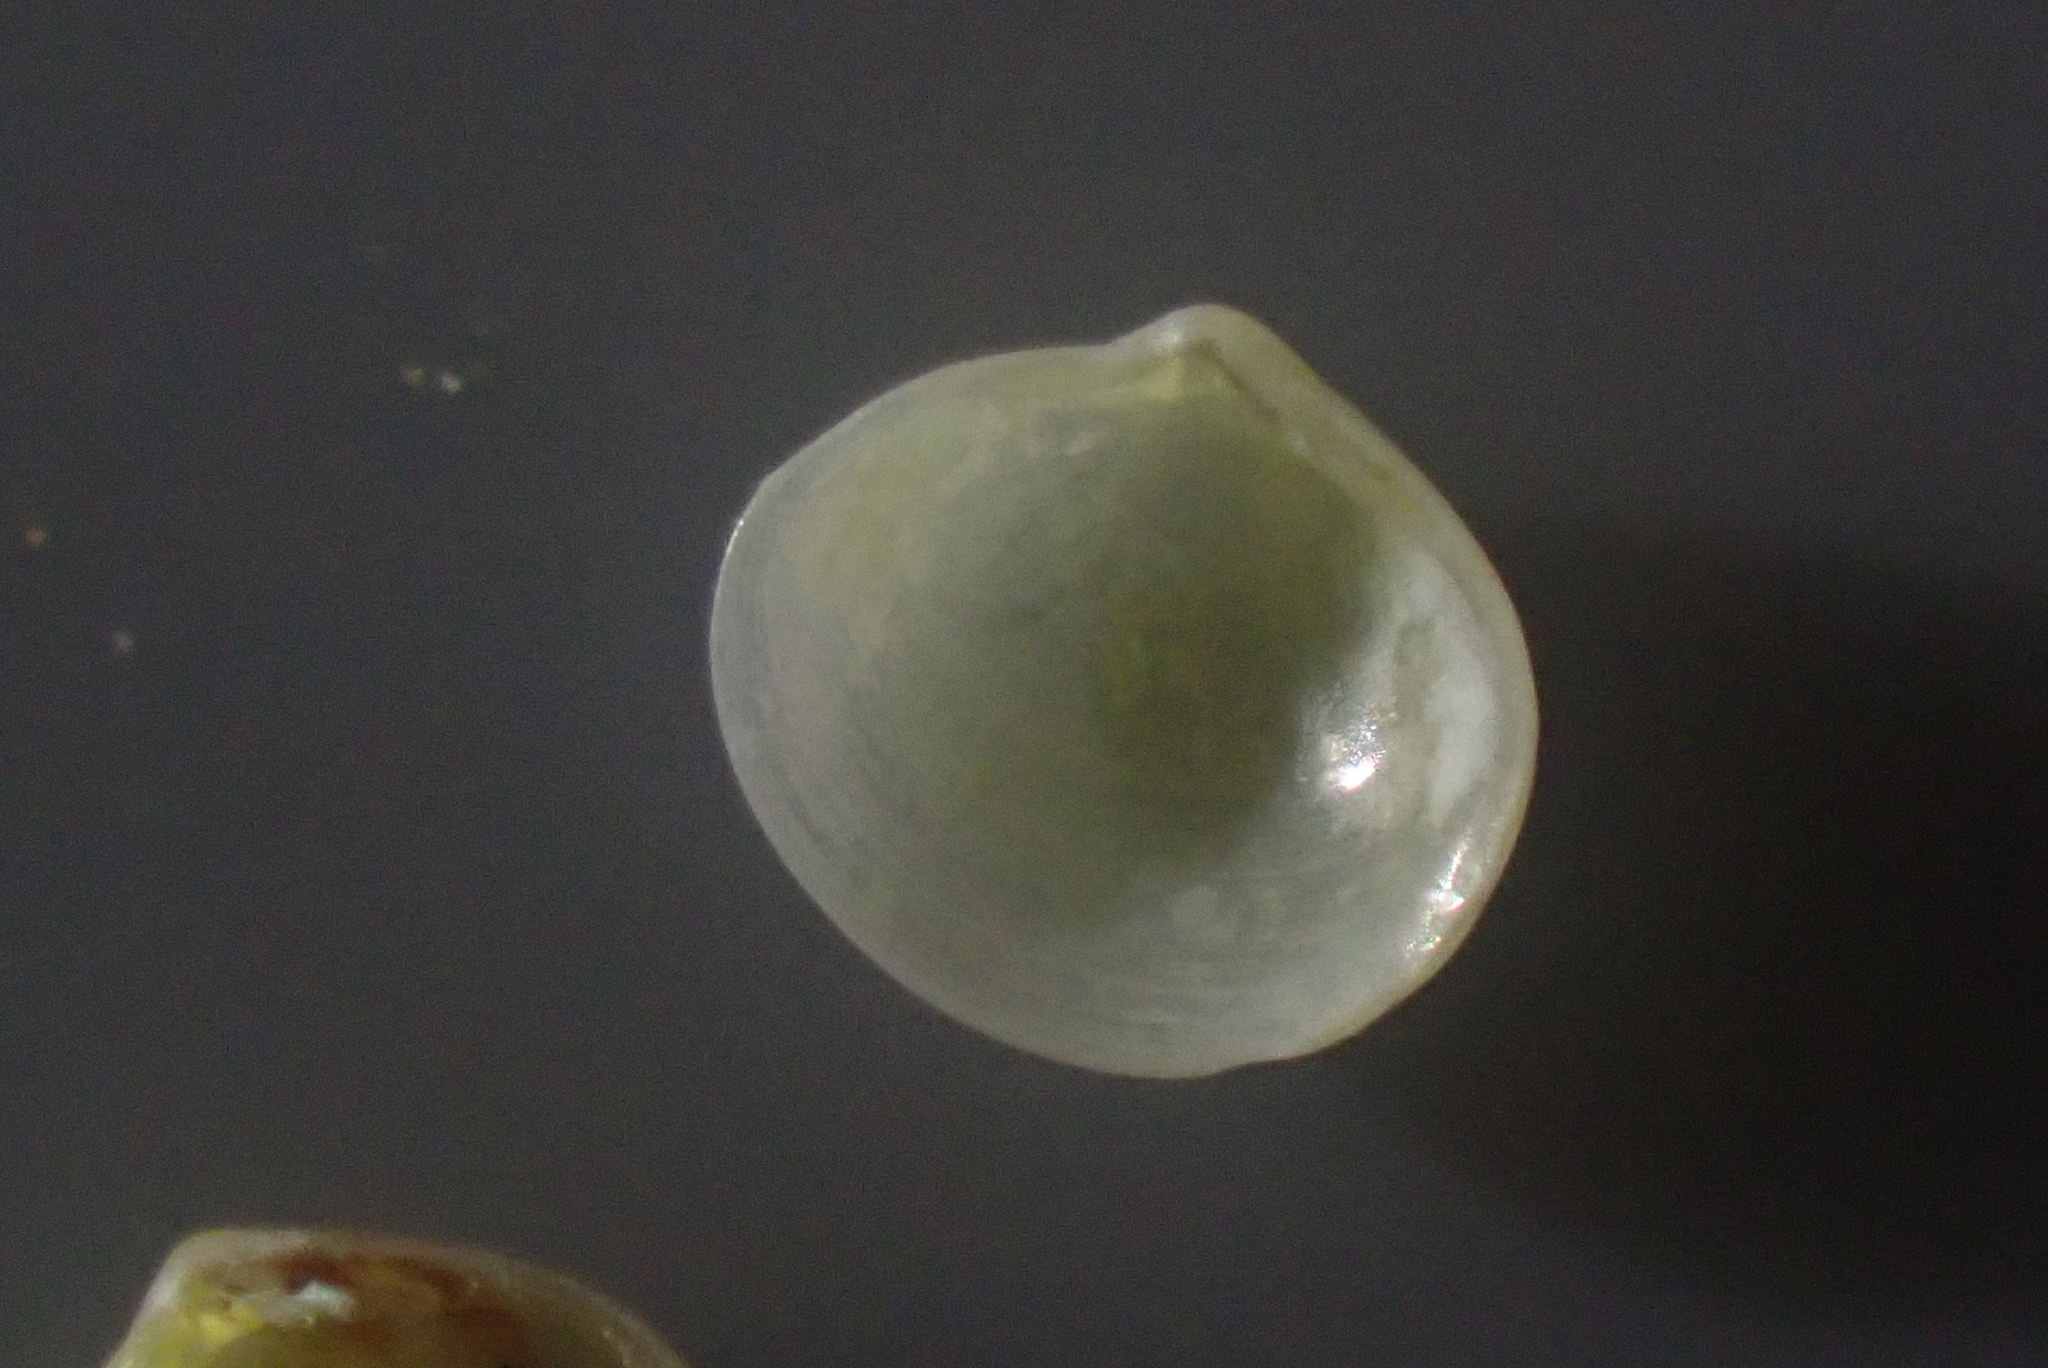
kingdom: Animalia
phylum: Mollusca
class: Bivalvia
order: Venerida
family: Neoleptonidae
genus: Neolepton
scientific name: Neolepton antipodum
